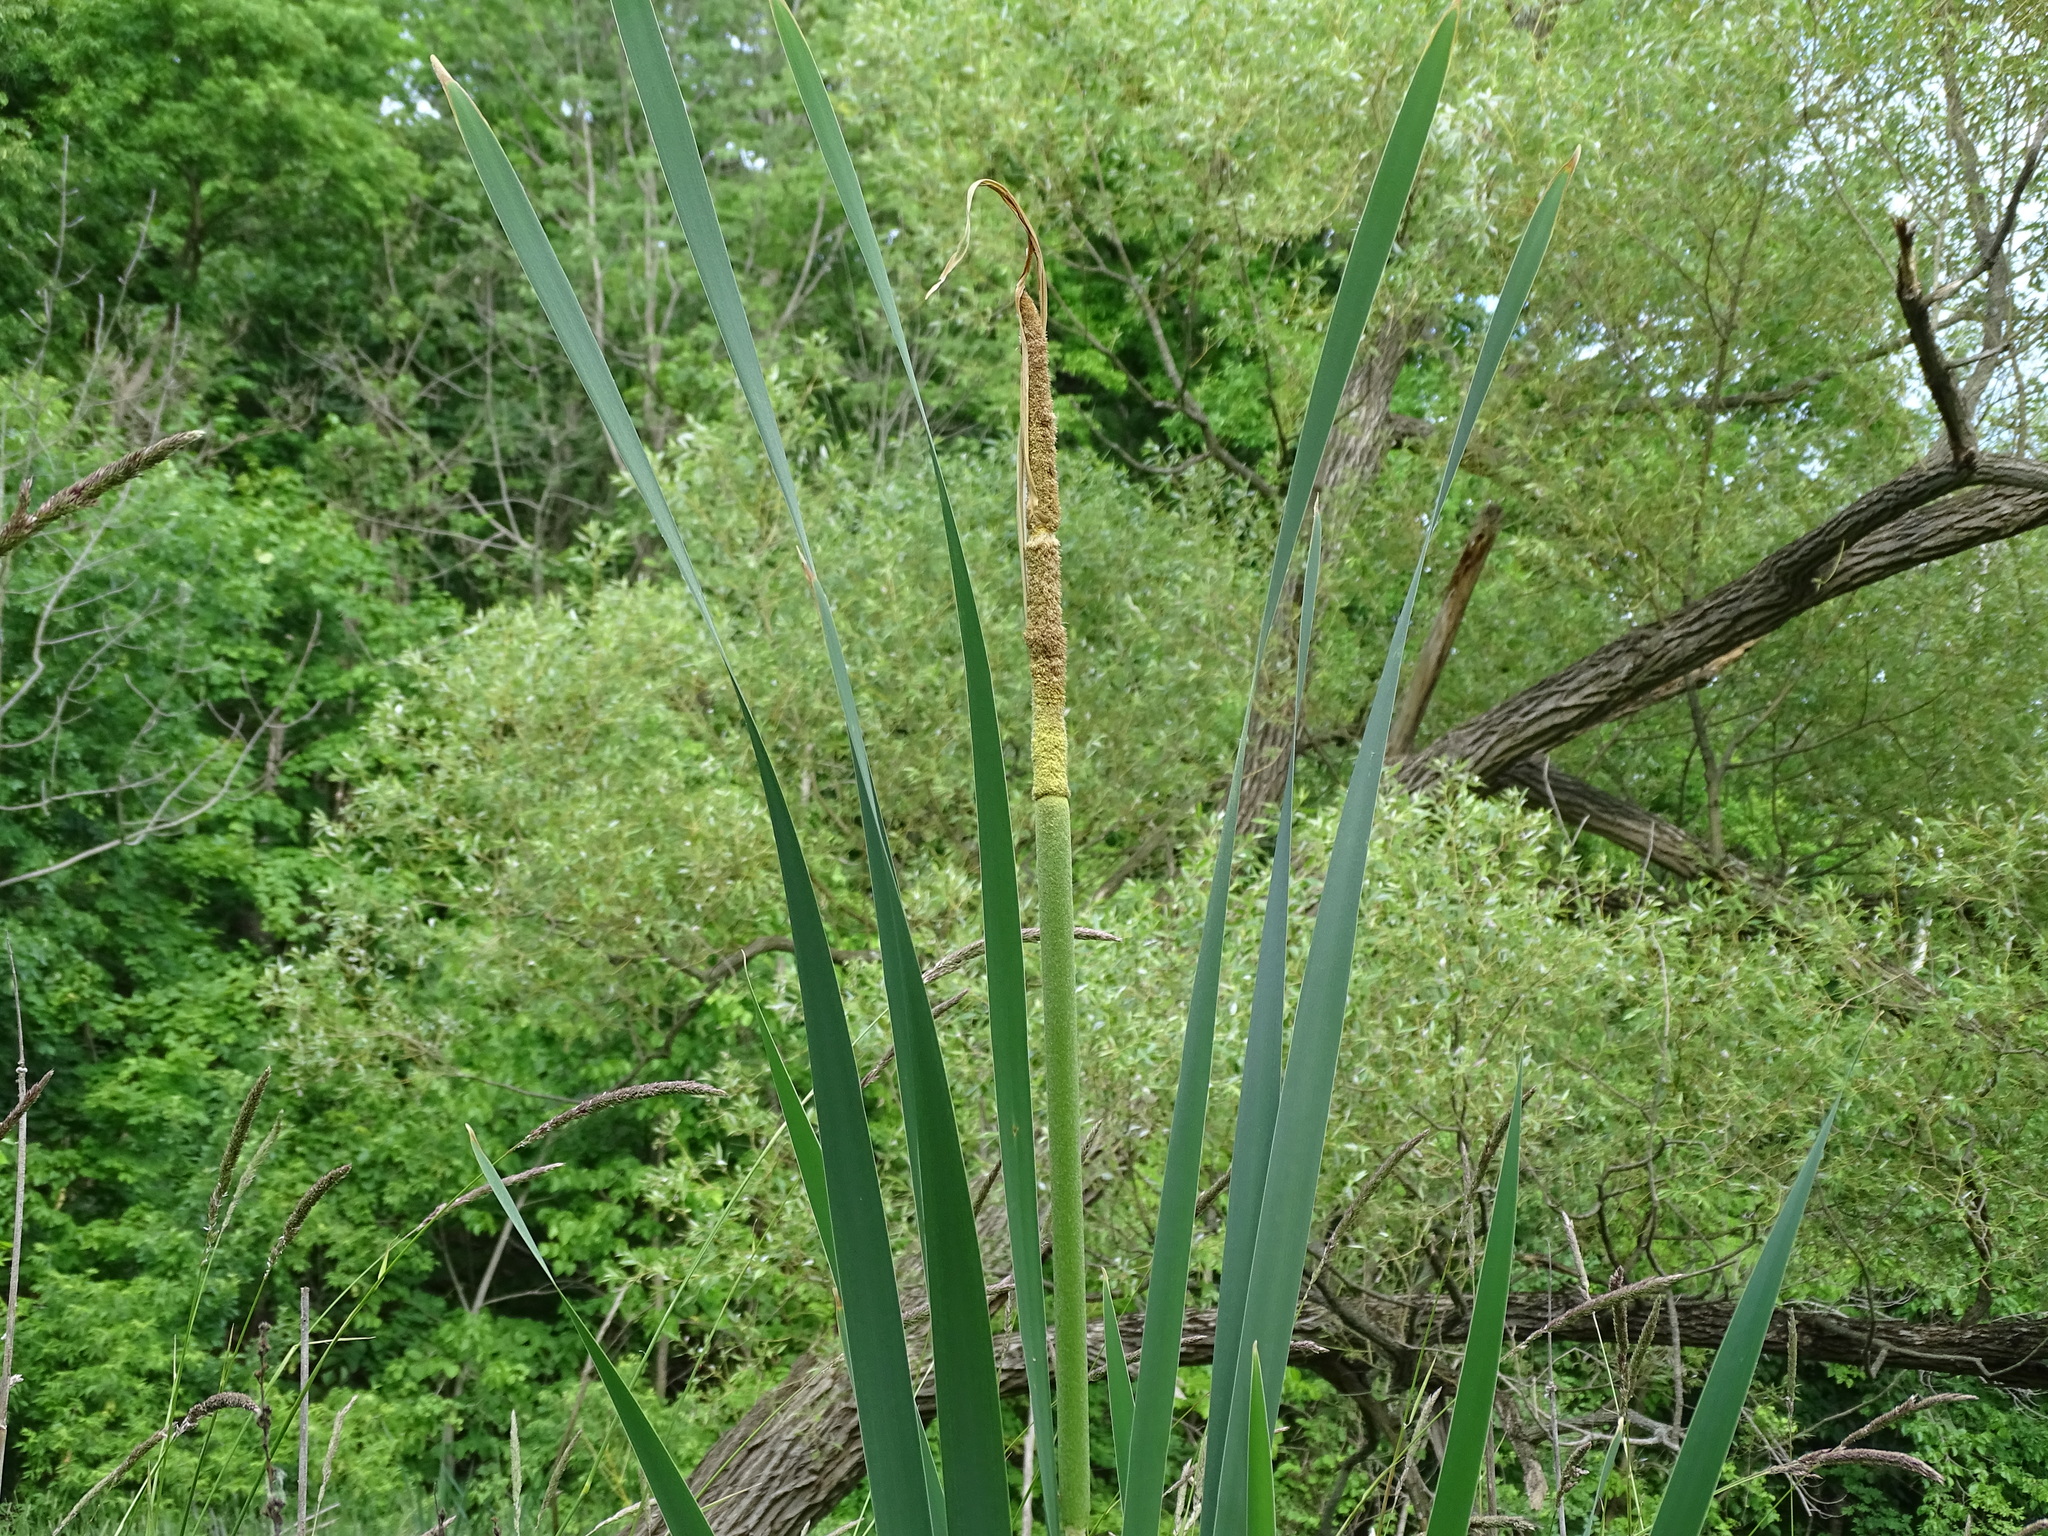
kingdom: Plantae
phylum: Tracheophyta
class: Liliopsida
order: Poales
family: Typhaceae
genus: Typha
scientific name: Typha latifolia
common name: Broadleaf cattail
